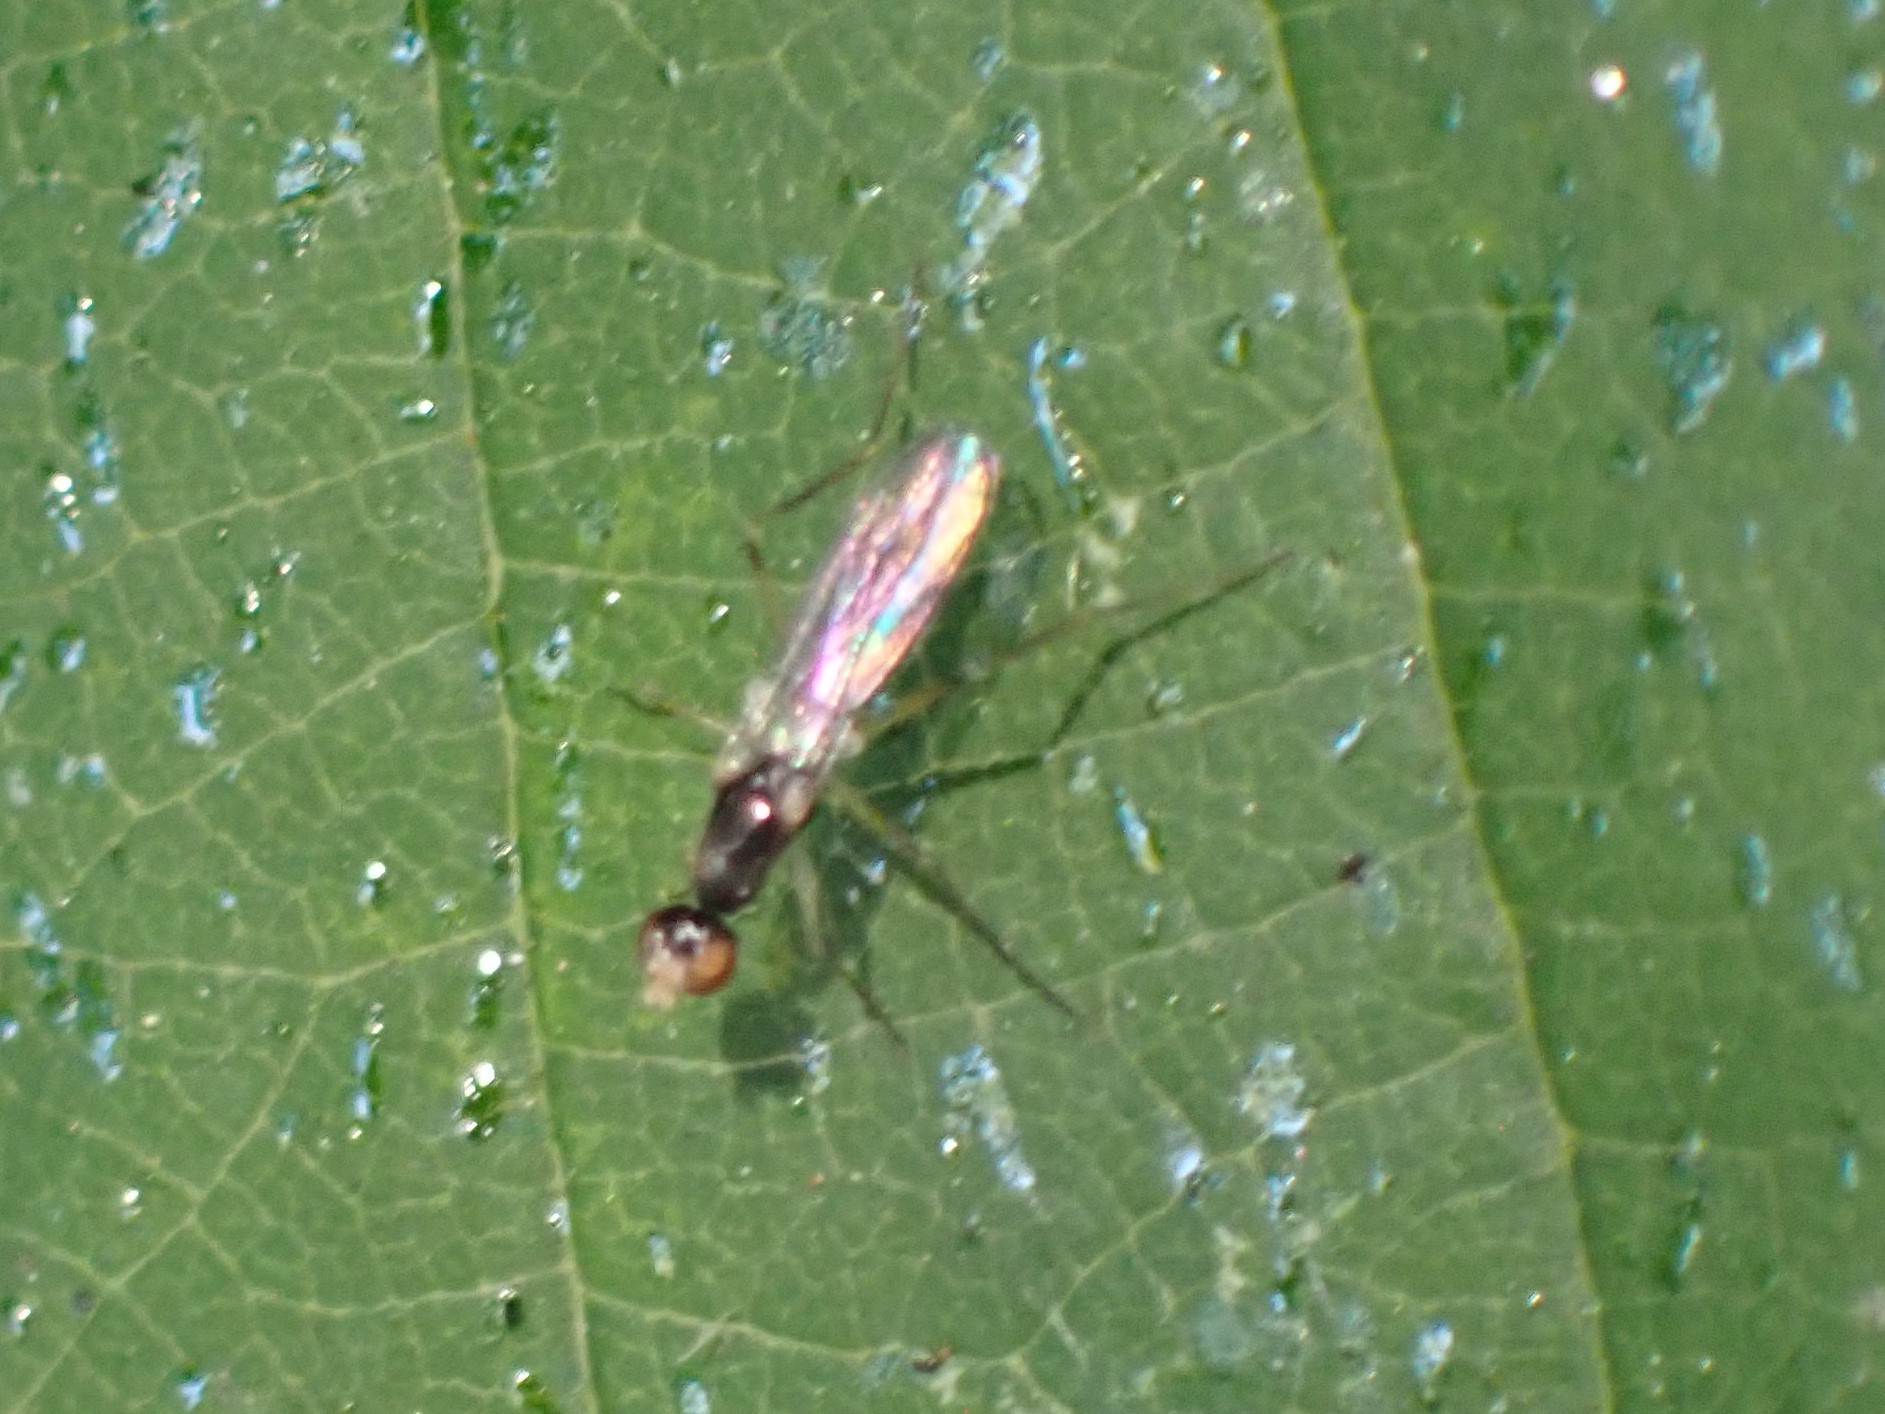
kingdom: Animalia
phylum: Arthropoda
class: Insecta
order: Diptera
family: Strongylophthalmyiidae
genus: Strongylophthalmyia
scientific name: Strongylophthalmyia angustipennis
